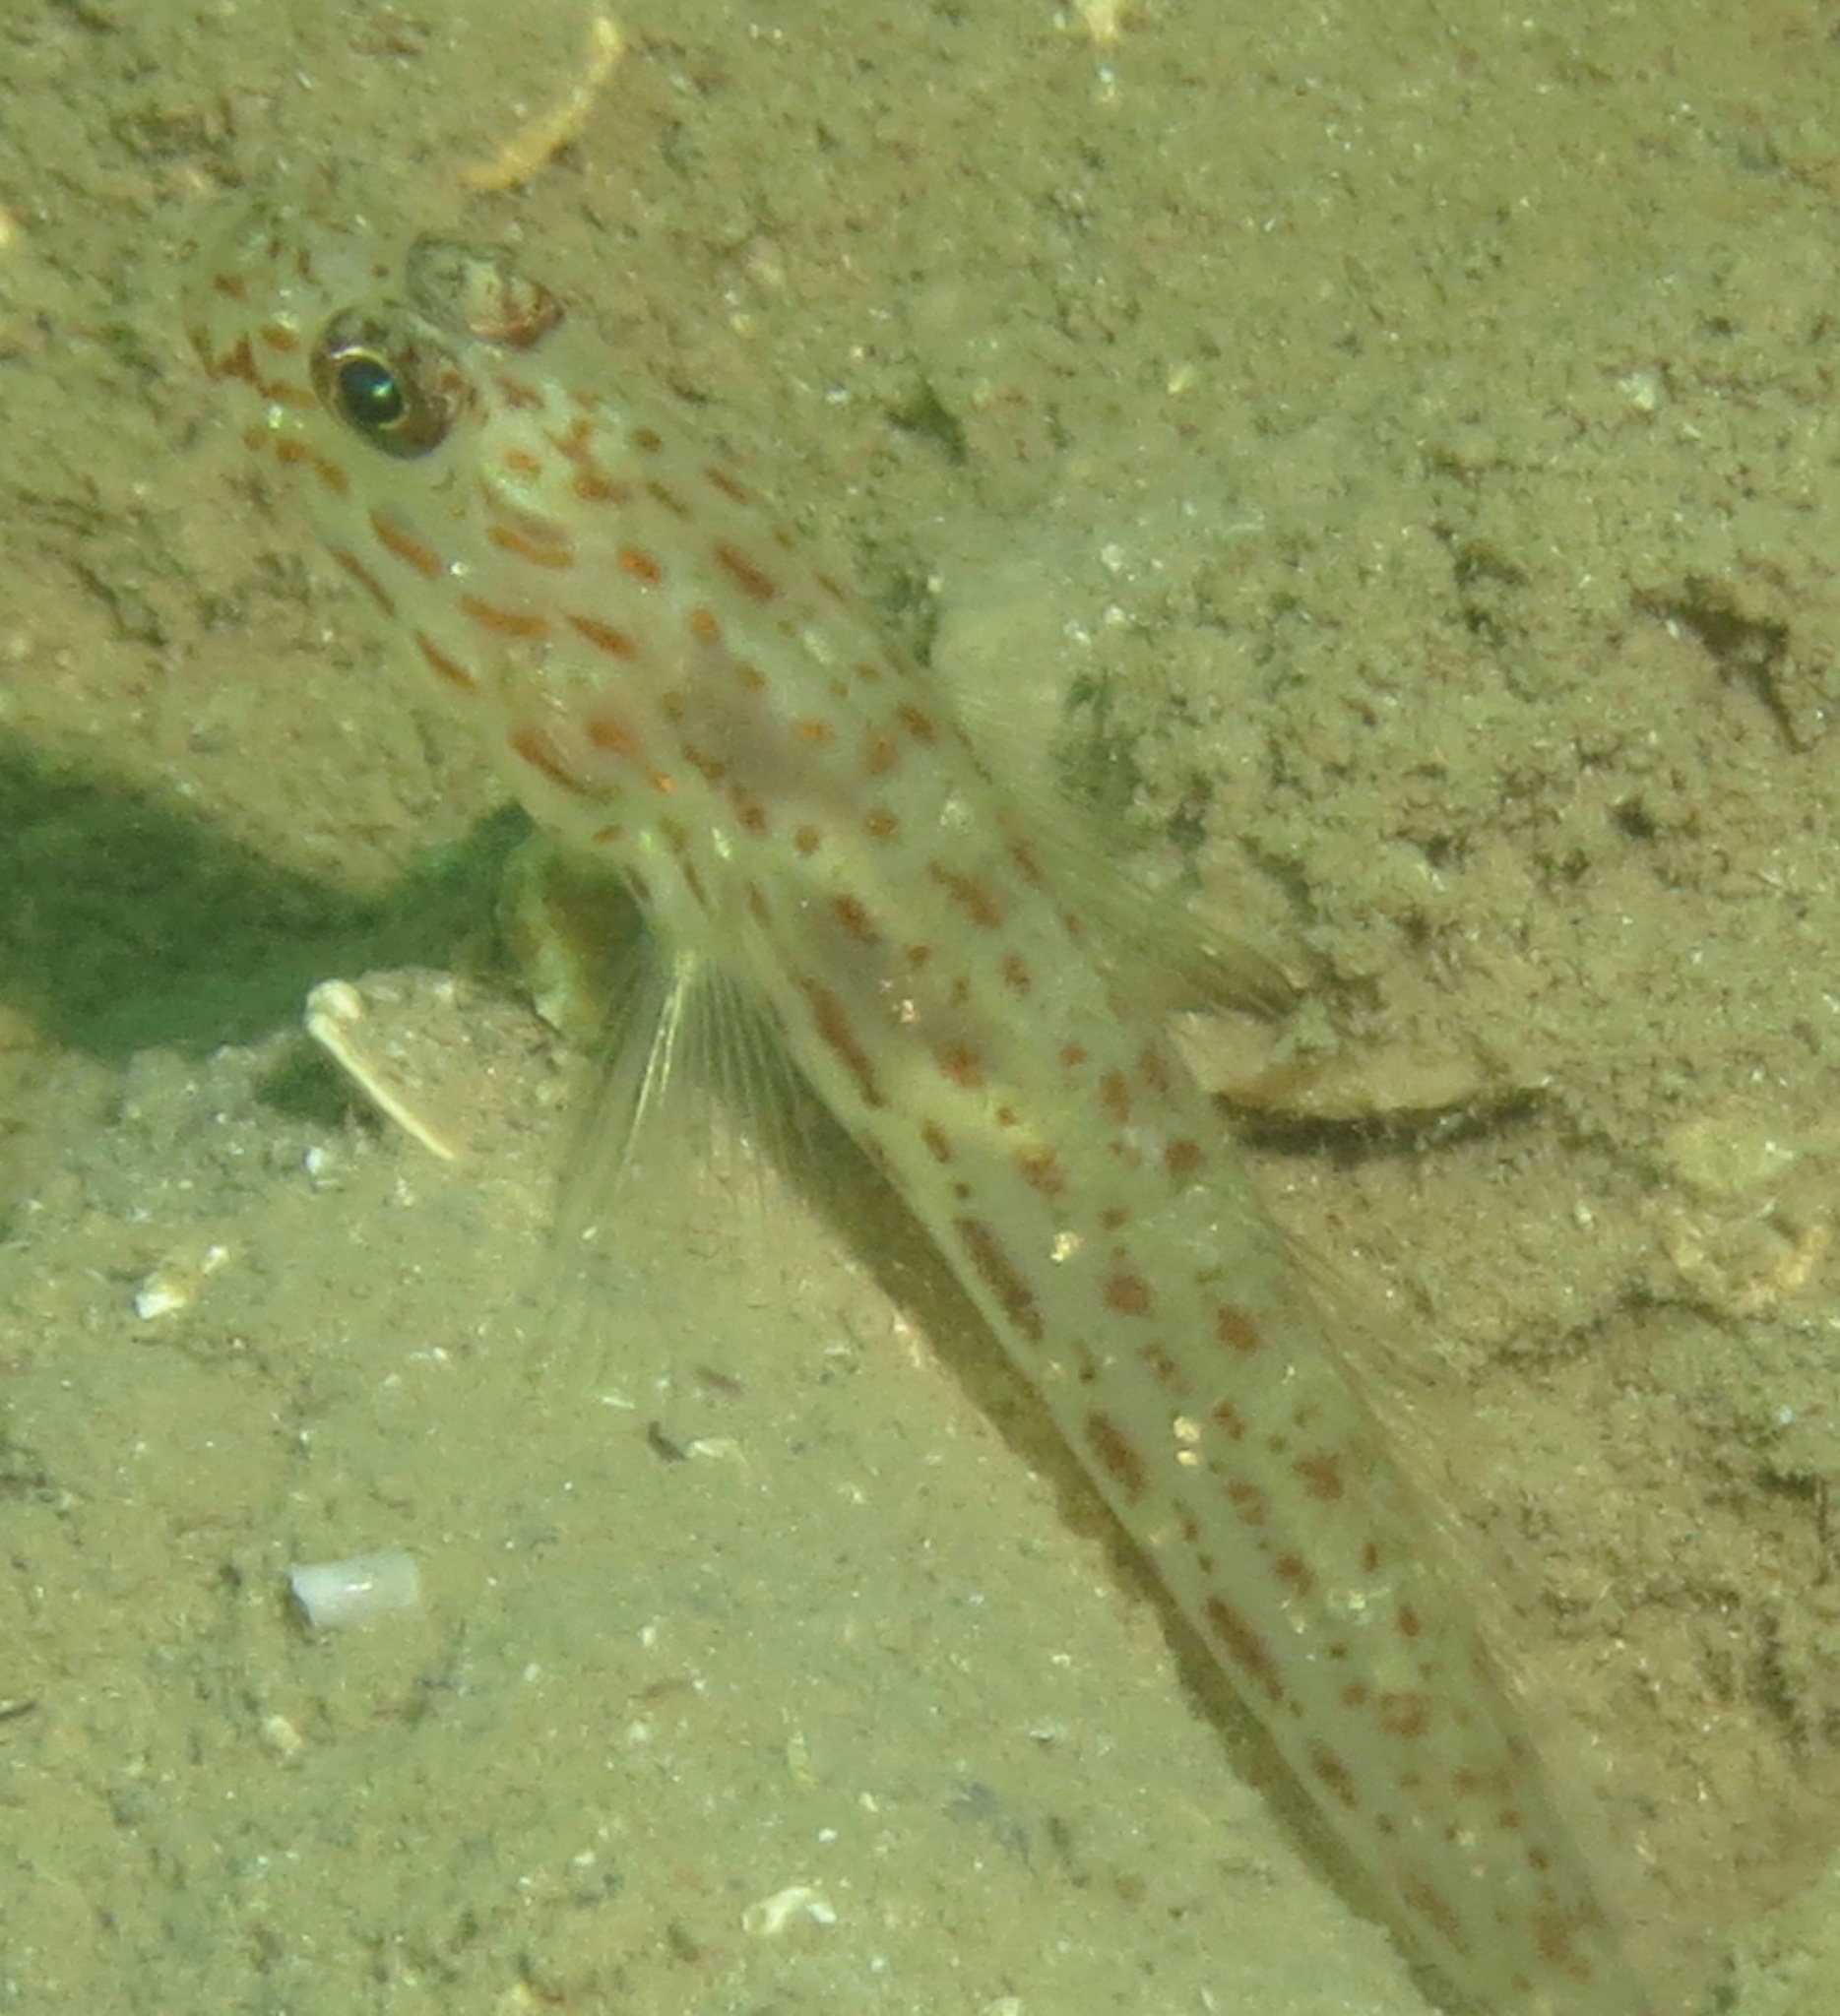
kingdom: Animalia
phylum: Chordata
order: Perciformes
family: Gobiidae
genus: Ctenogobiops
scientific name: Ctenogobiops crocineus
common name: Silverspot shrimpgoby
